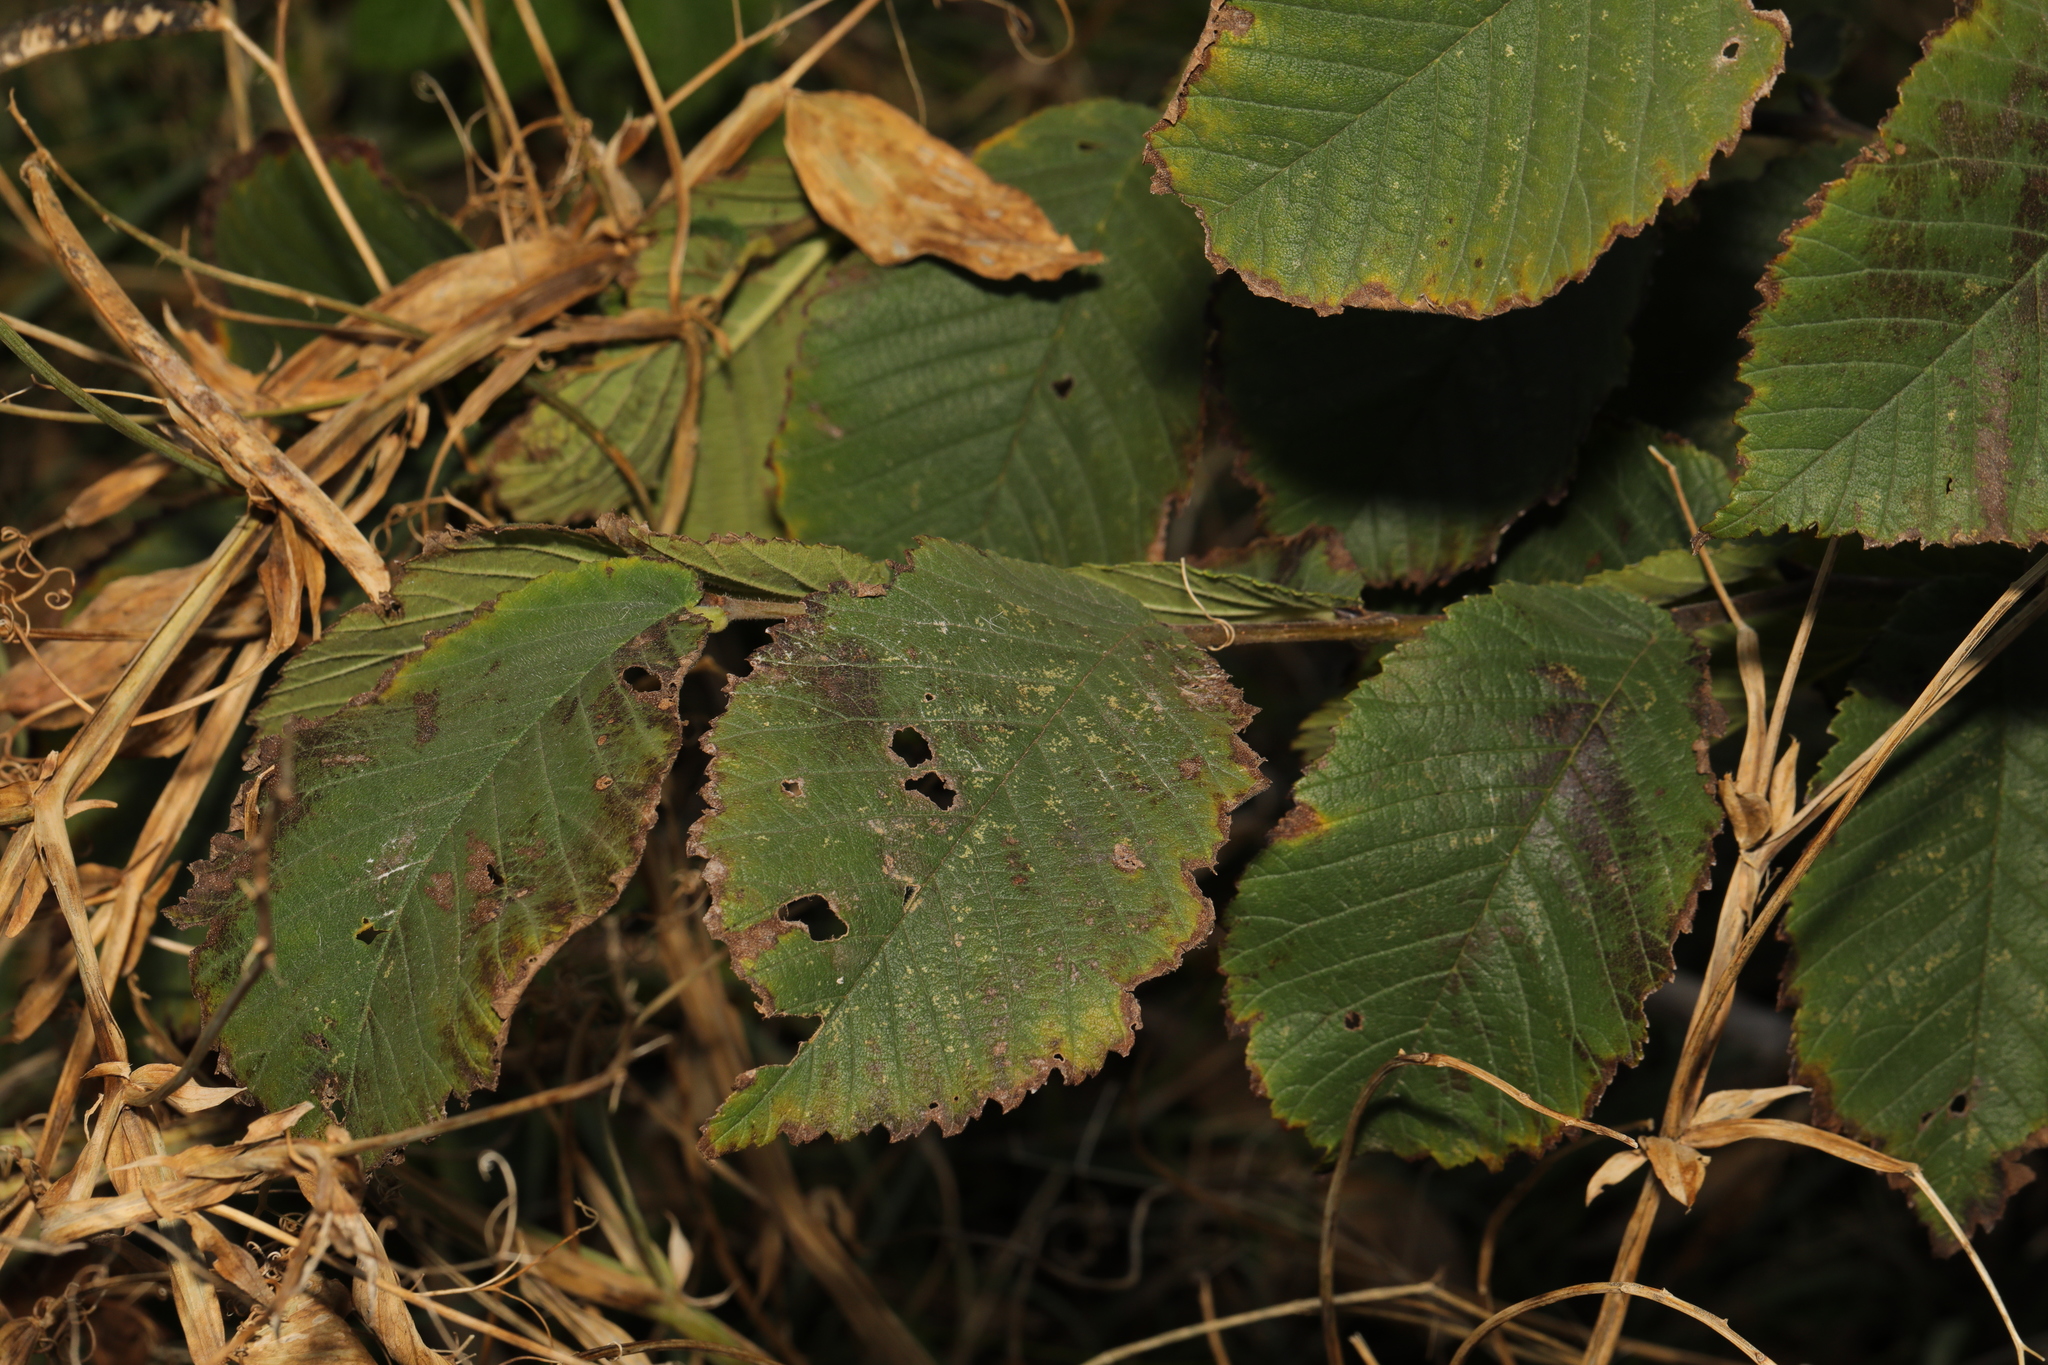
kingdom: Plantae
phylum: Tracheophyta
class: Magnoliopsida
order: Rosales
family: Ulmaceae
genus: Ulmus
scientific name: Ulmus glabra
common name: Wych elm
